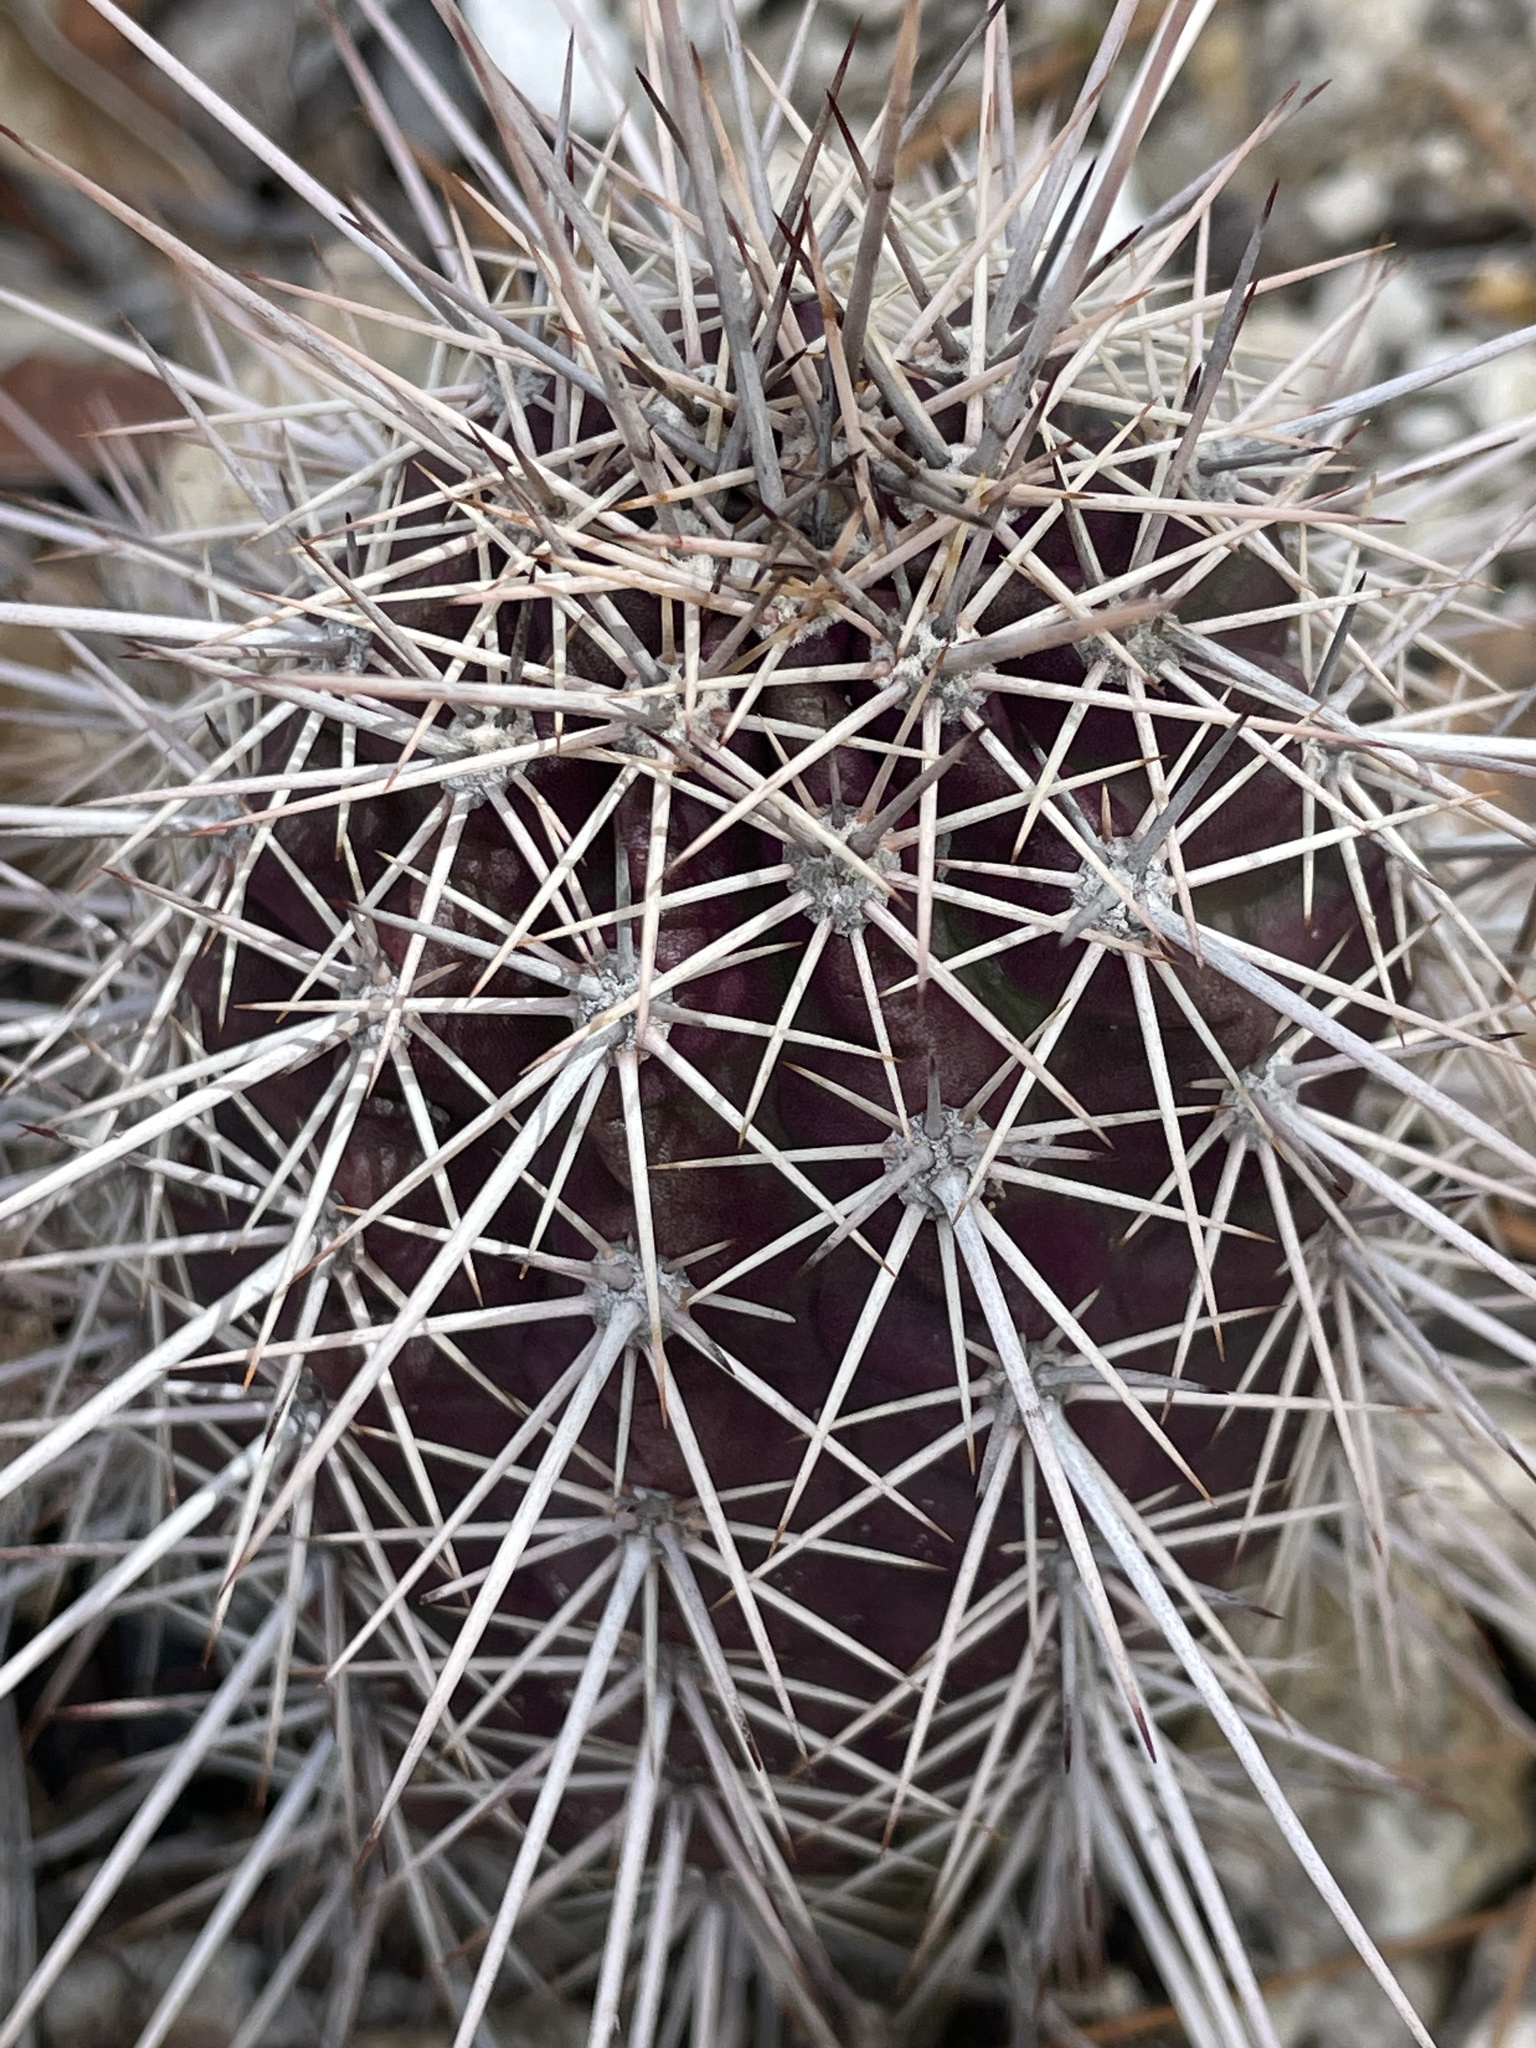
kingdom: Plantae
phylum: Tracheophyta
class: Magnoliopsida
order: Caryophyllales
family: Cactaceae
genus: Echinocereus
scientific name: Echinocereus coccineus
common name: Scarlet hedgehog cactus
